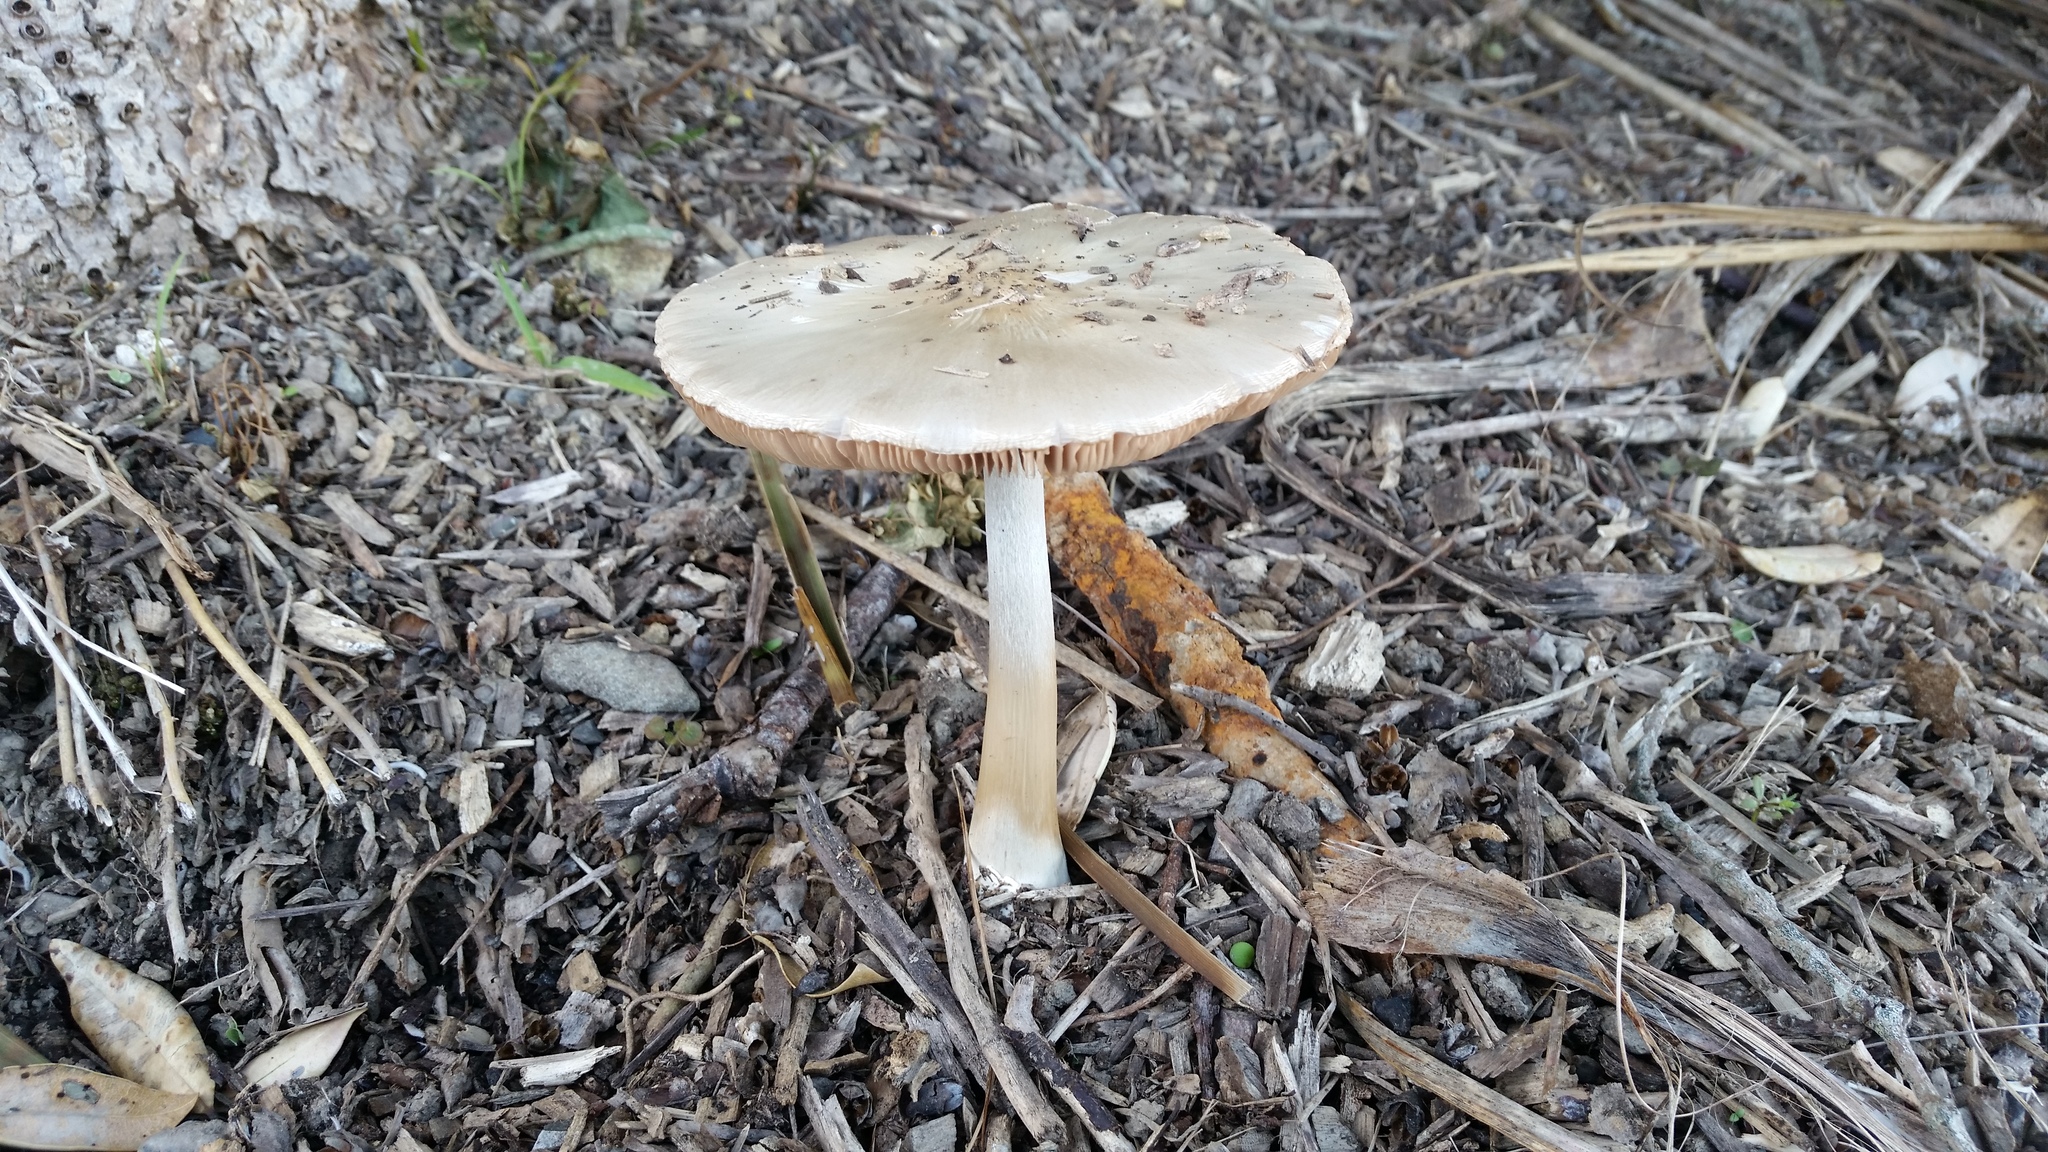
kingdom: Fungi
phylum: Basidiomycota
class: Agaricomycetes
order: Agaricales
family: Pluteaceae
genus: Volvopluteus
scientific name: Volvopluteus gloiocephalus
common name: Stubble rosegill
